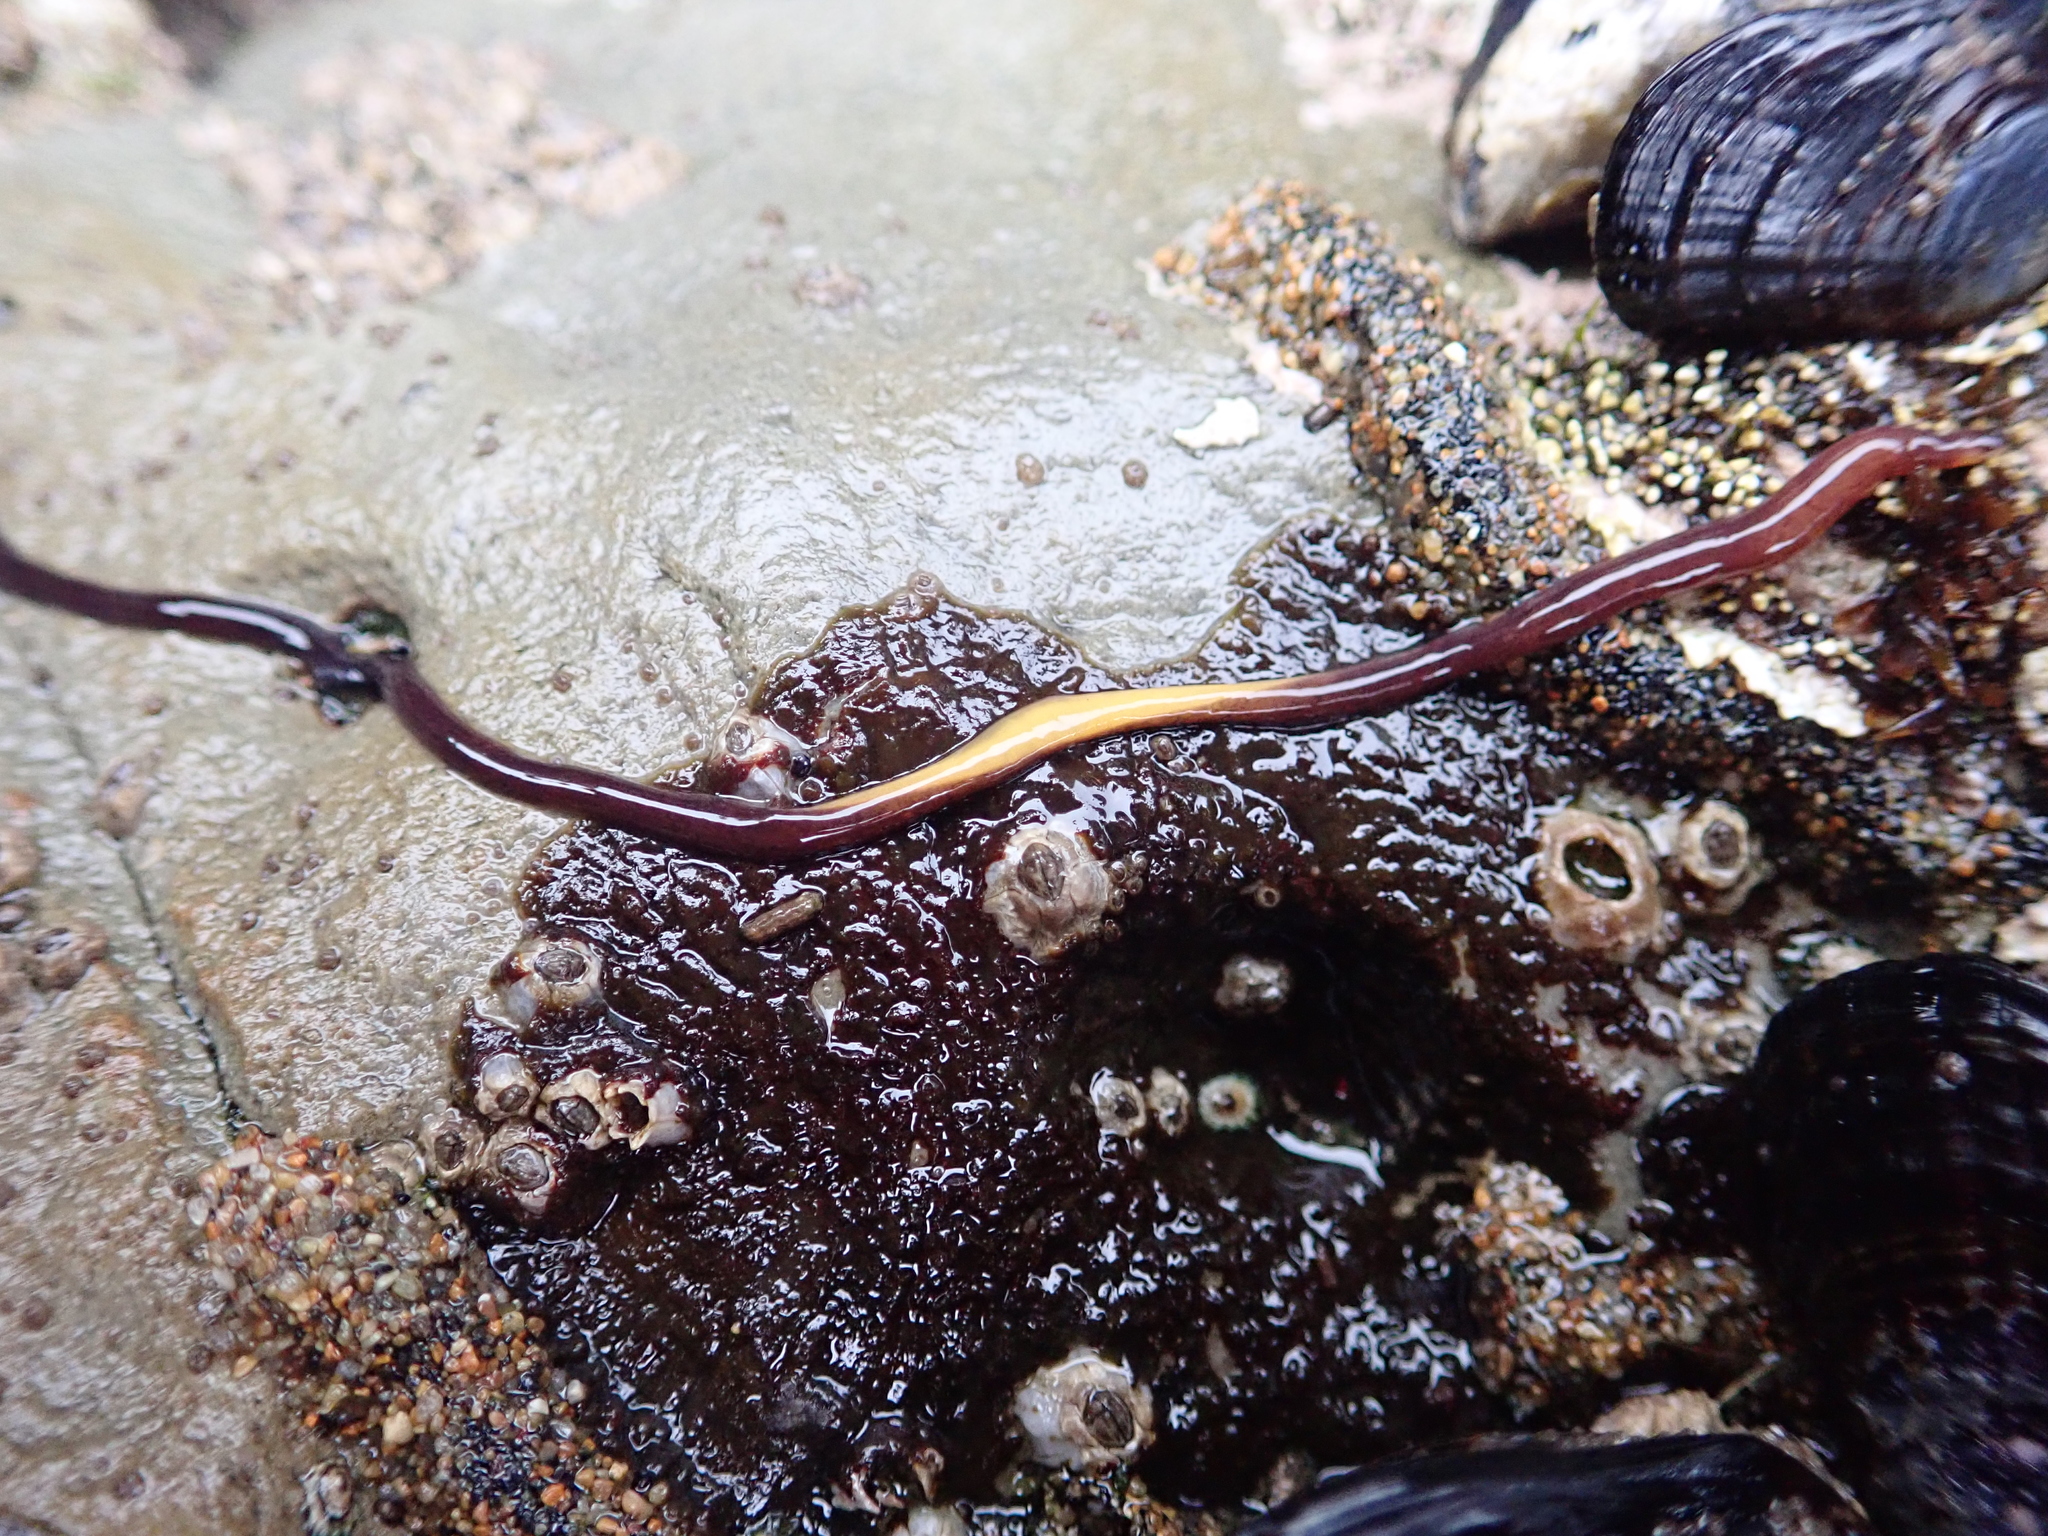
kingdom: Animalia
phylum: Nemertea
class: Hoplonemertea
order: Monostilifera
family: Neesiidae
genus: Paranemertes
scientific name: Paranemertes peregrina
